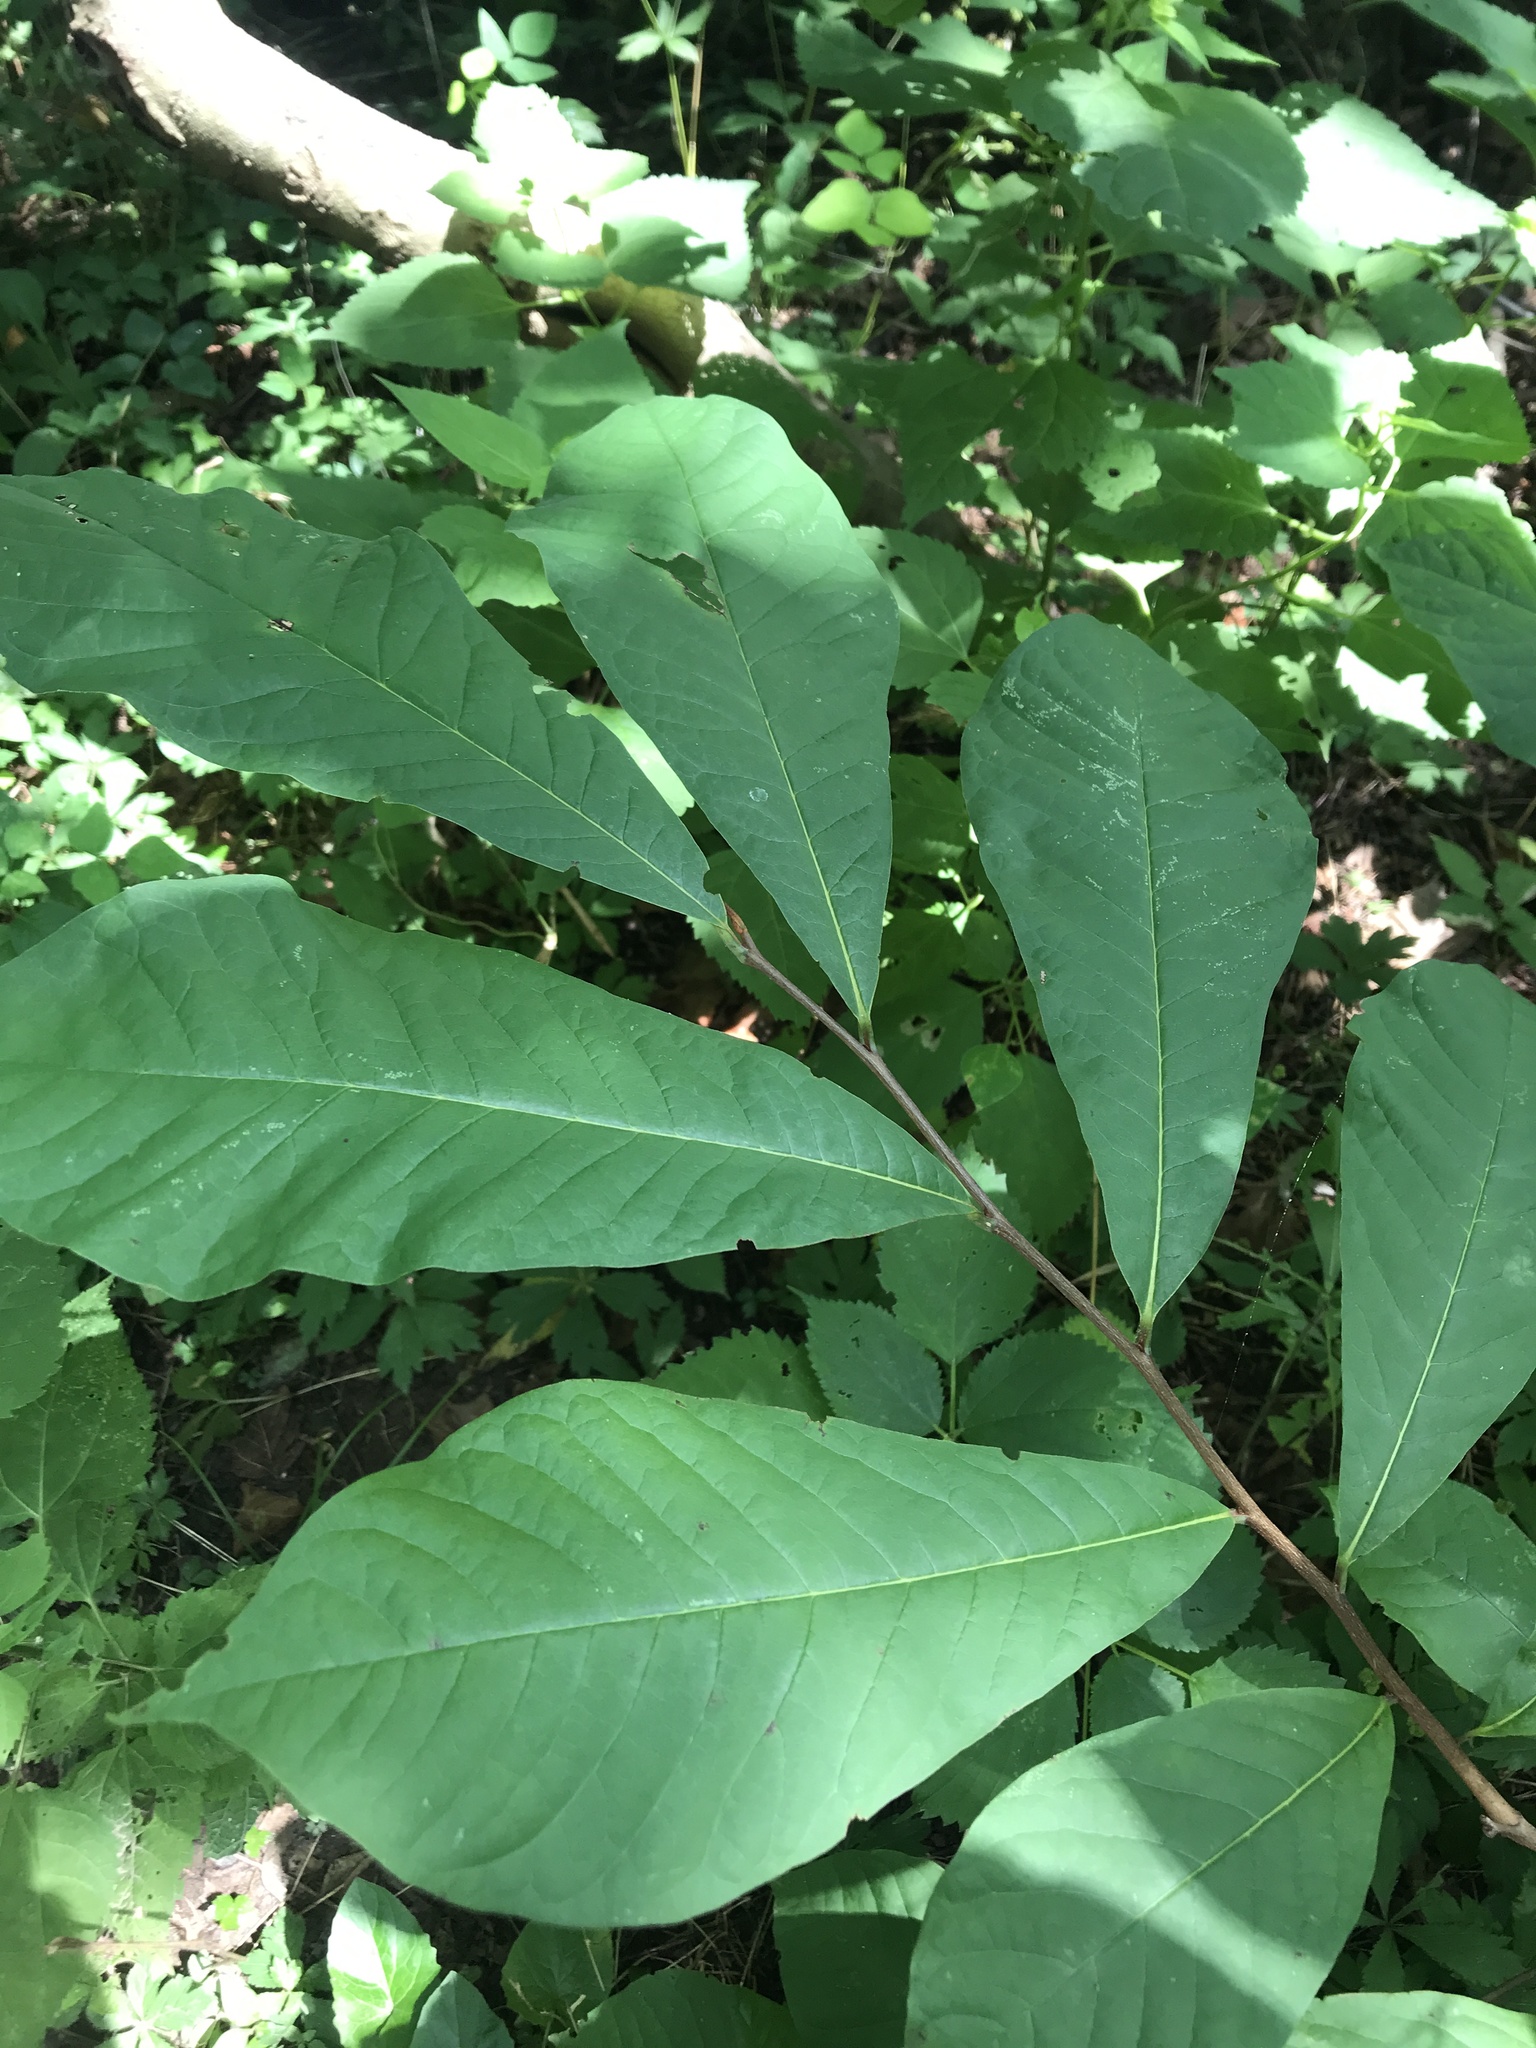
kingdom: Plantae
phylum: Tracheophyta
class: Magnoliopsida
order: Magnoliales
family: Annonaceae
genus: Asimina
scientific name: Asimina triloba
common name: Dog-banana
